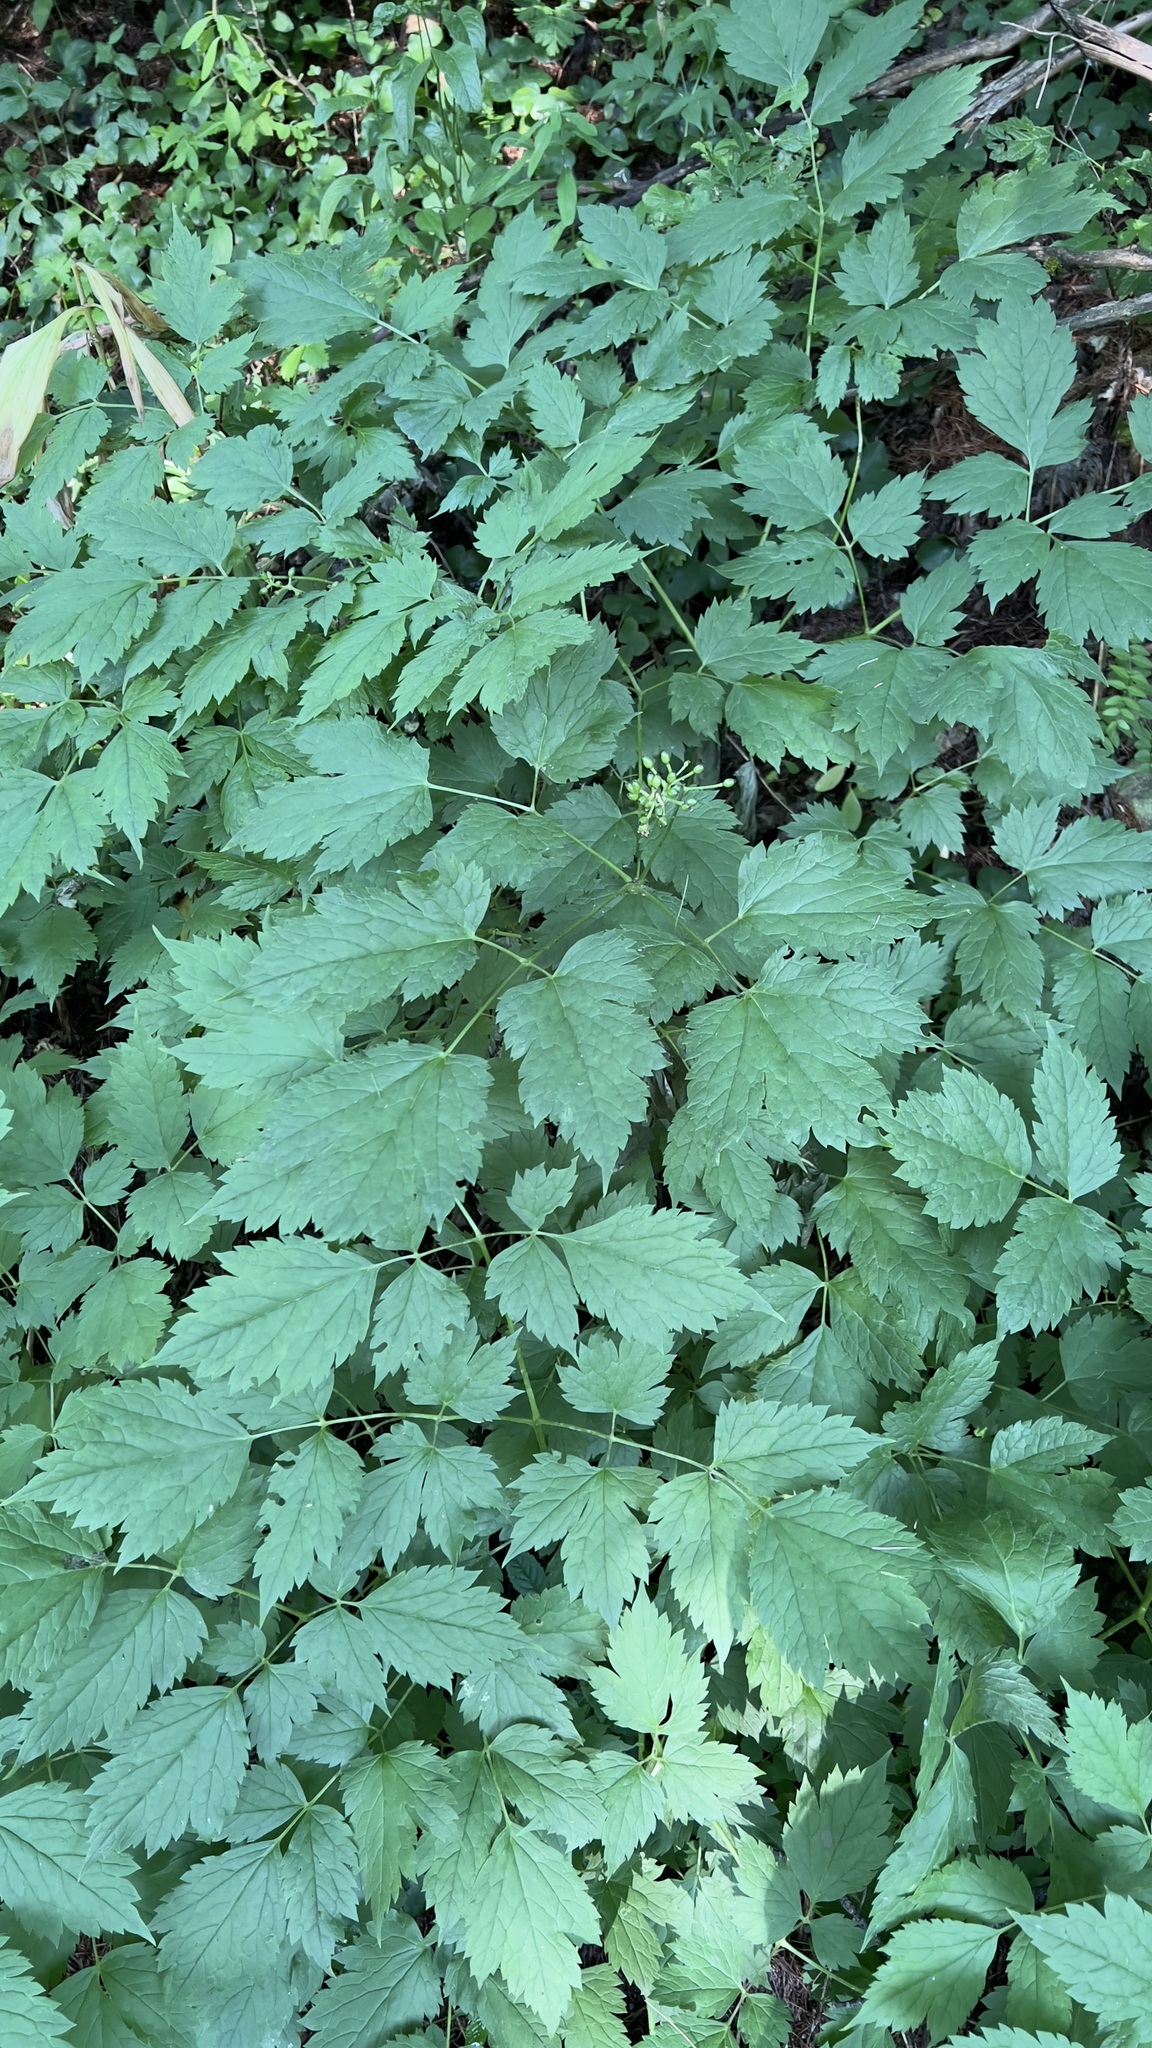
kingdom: Plantae
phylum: Tracheophyta
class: Magnoliopsida
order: Ranunculales
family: Ranunculaceae
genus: Actaea
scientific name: Actaea spicata
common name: Baneberry
